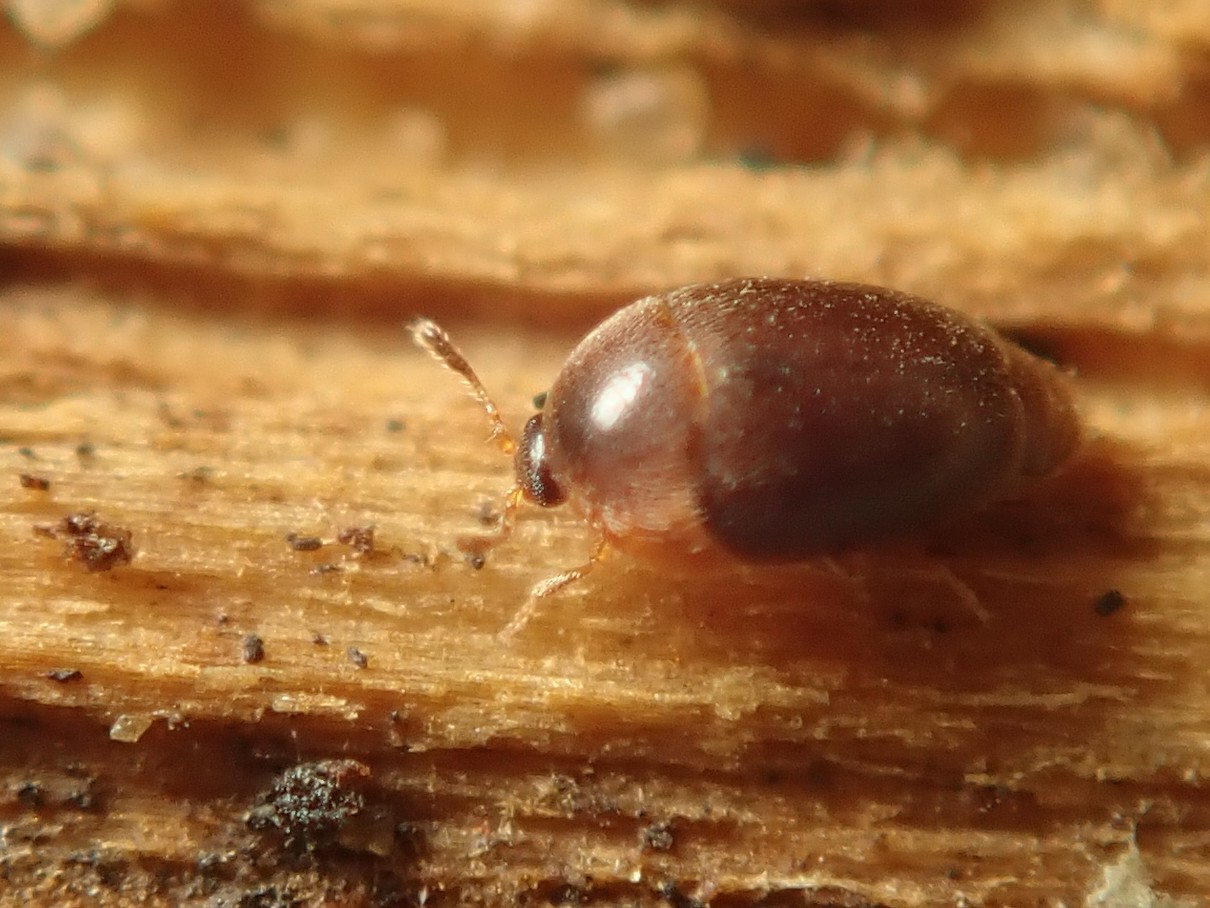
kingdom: Animalia
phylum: Arthropoda
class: Insecta
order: Coleoptera
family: Corylophidae
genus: Sericoderus
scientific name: Sericoderus lateralis
